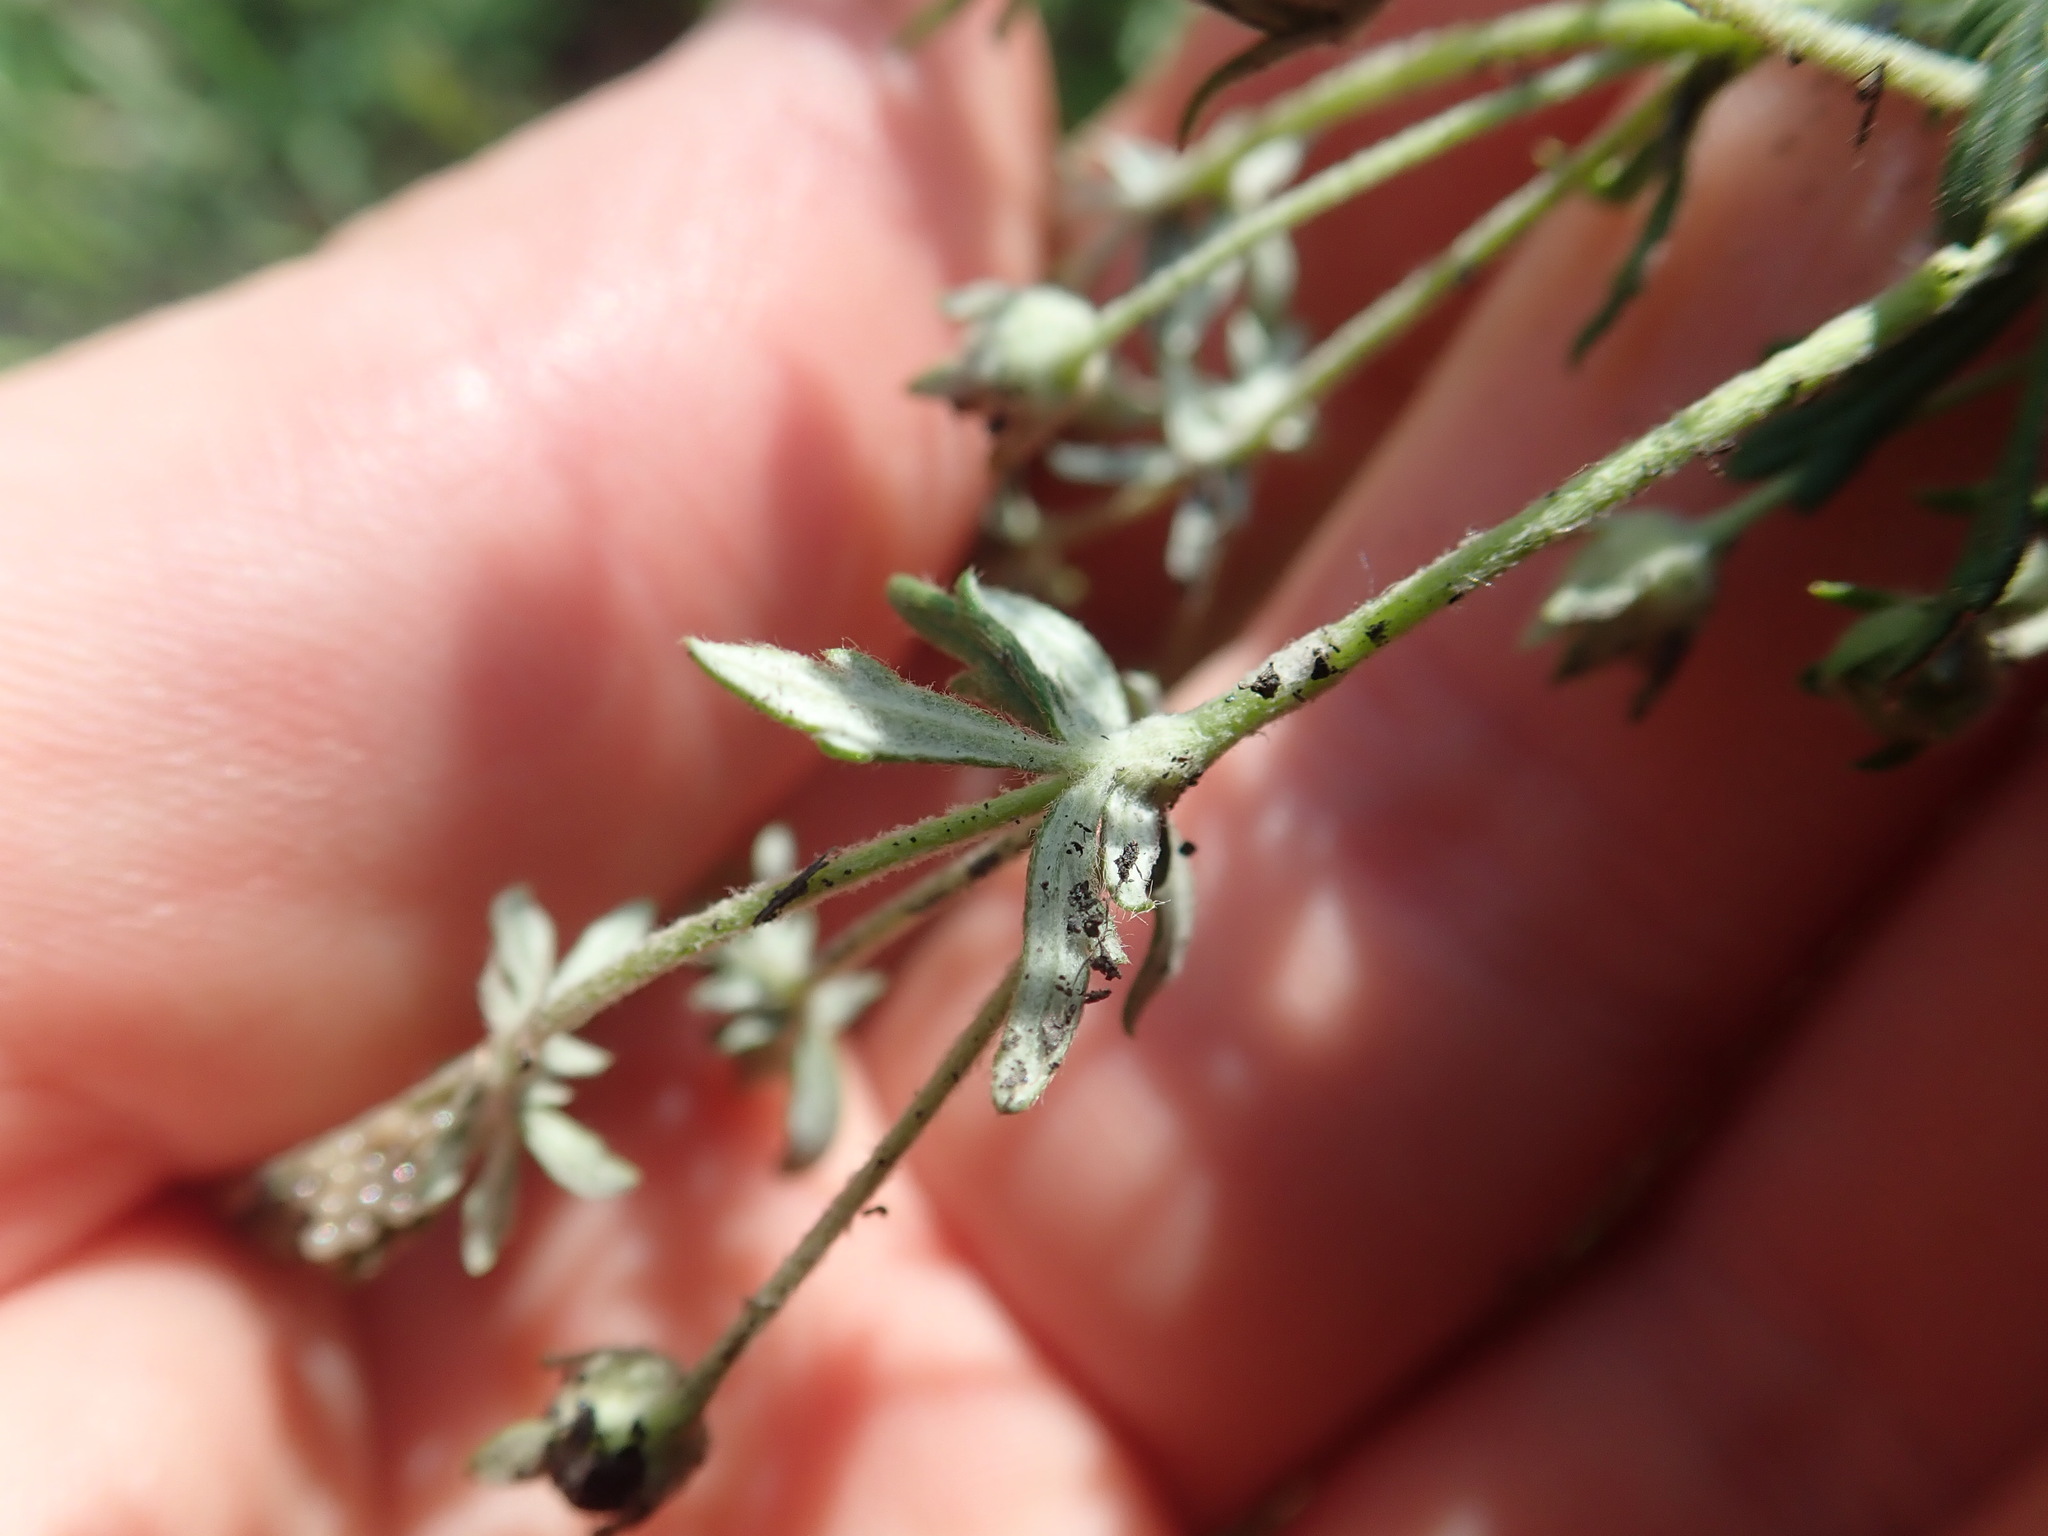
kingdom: Plantae
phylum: Tracheophyta
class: Magnoliopsida
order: Rosales
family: Rosaceae
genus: Potentilla
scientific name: Potentilla argentea
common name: Hoary cinquefoil
